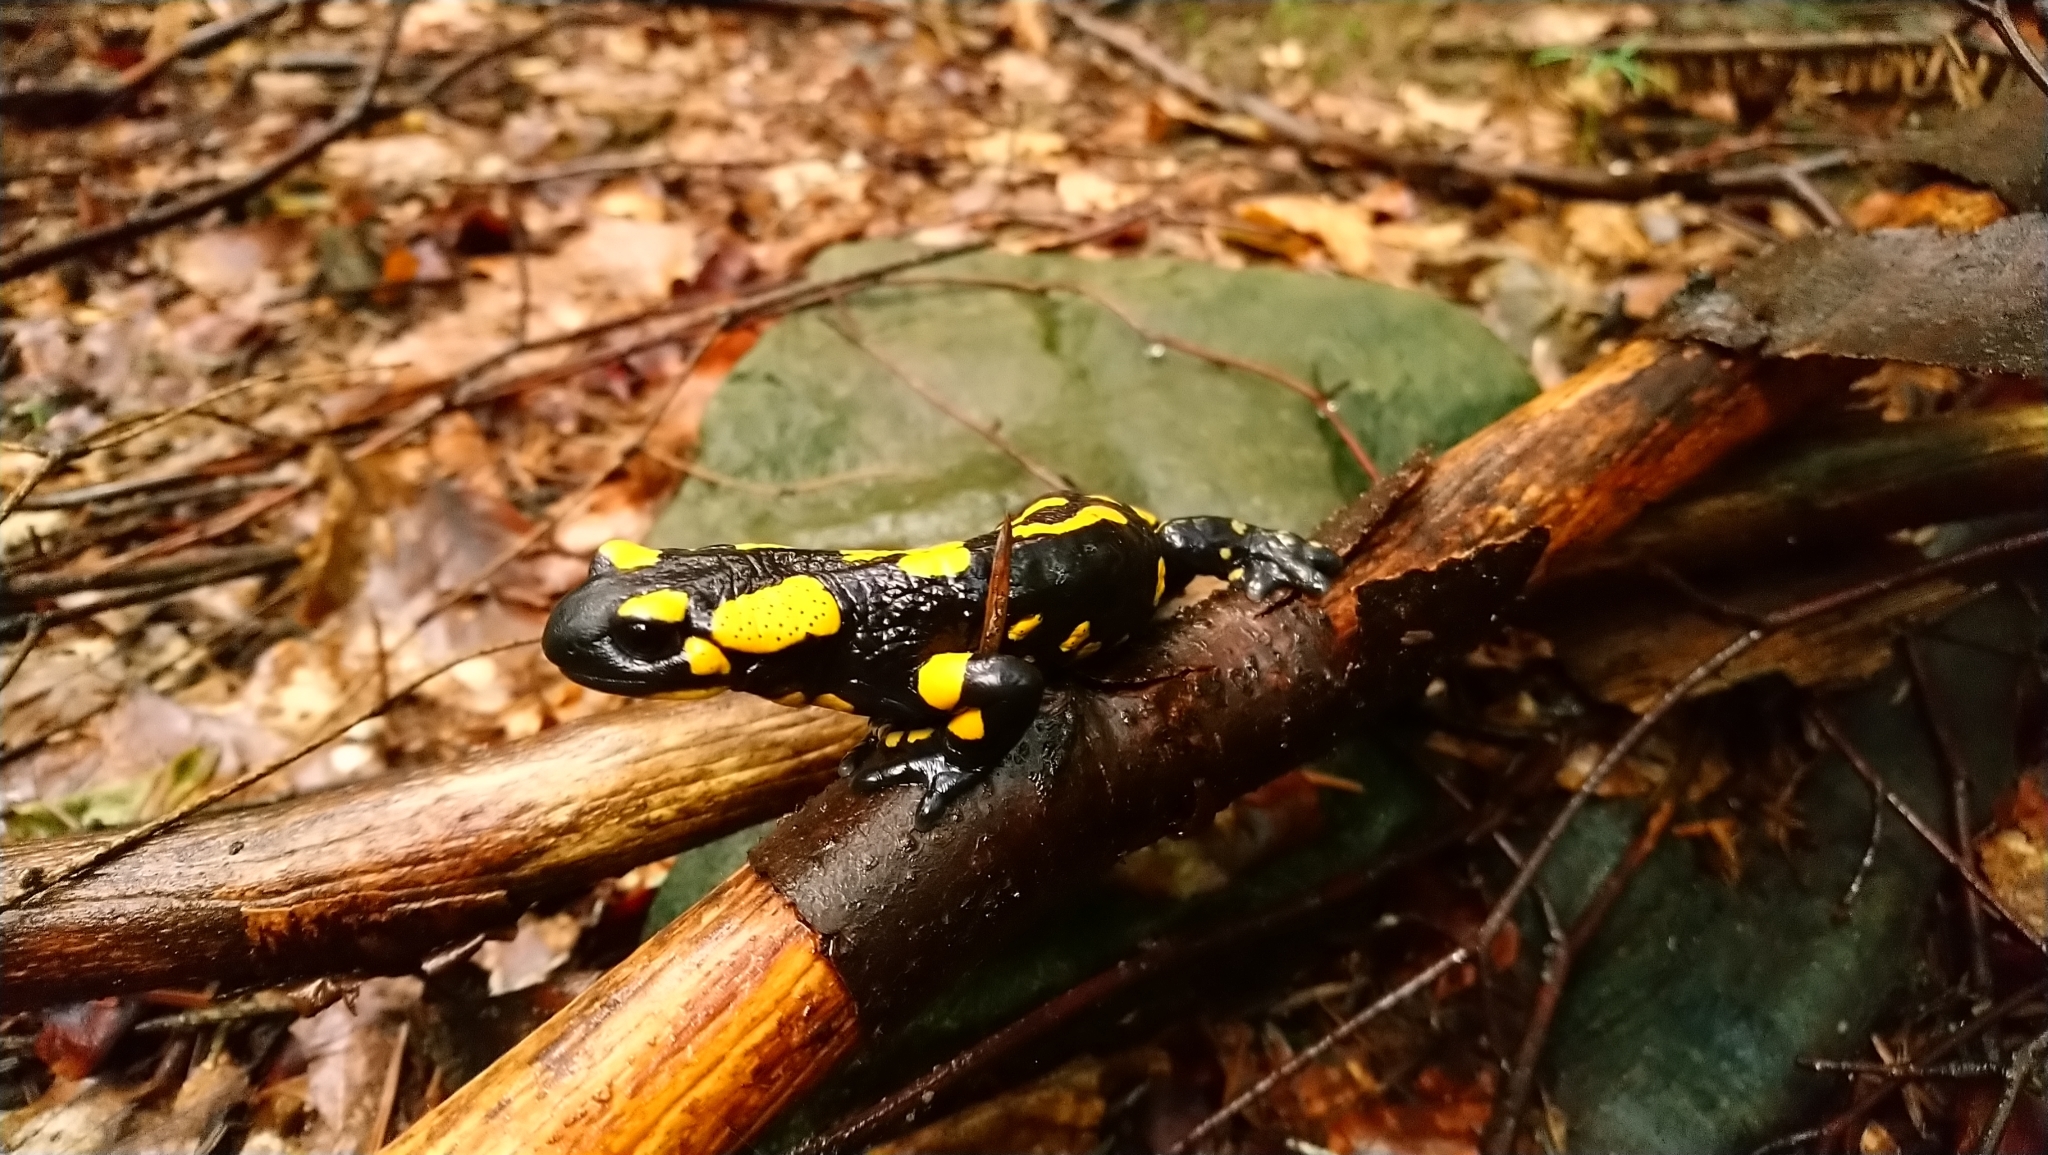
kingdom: Animalia
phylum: Chordata
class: Amphibia
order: Caudata
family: Salamandridae
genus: Salamandra
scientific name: Salamandra salamandra
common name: Fire salamander
